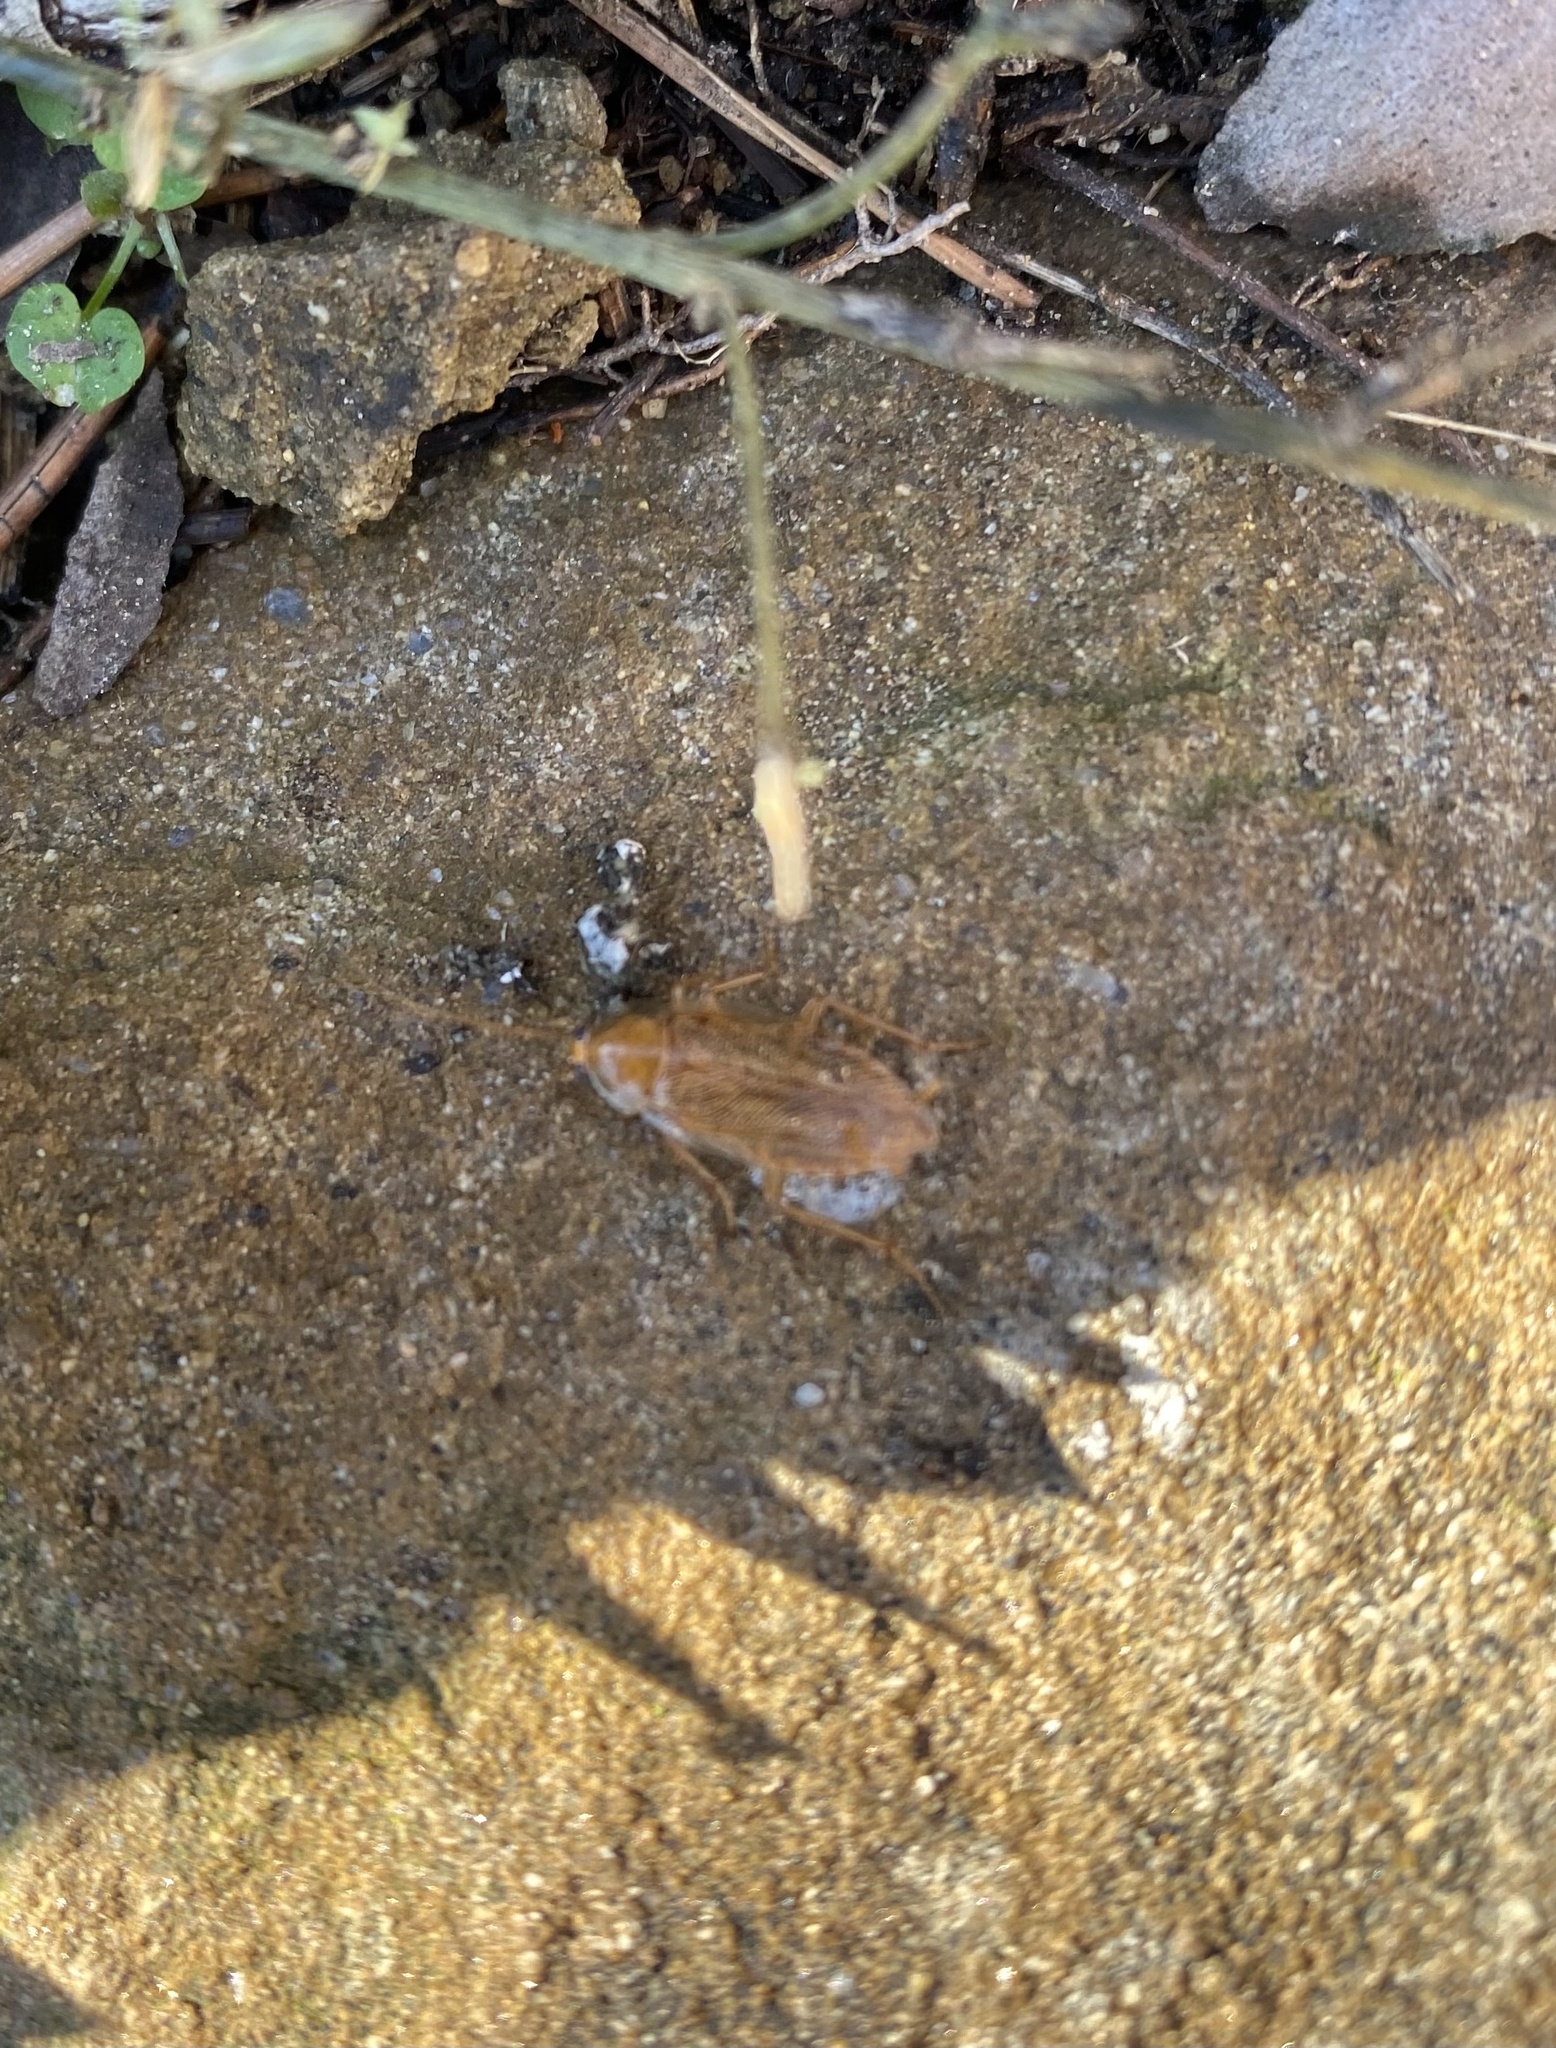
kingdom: Animalia
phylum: Arthropoda
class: Insecta
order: Blattodea
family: Ectobiidae
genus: Ectobius
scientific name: Ectobius
